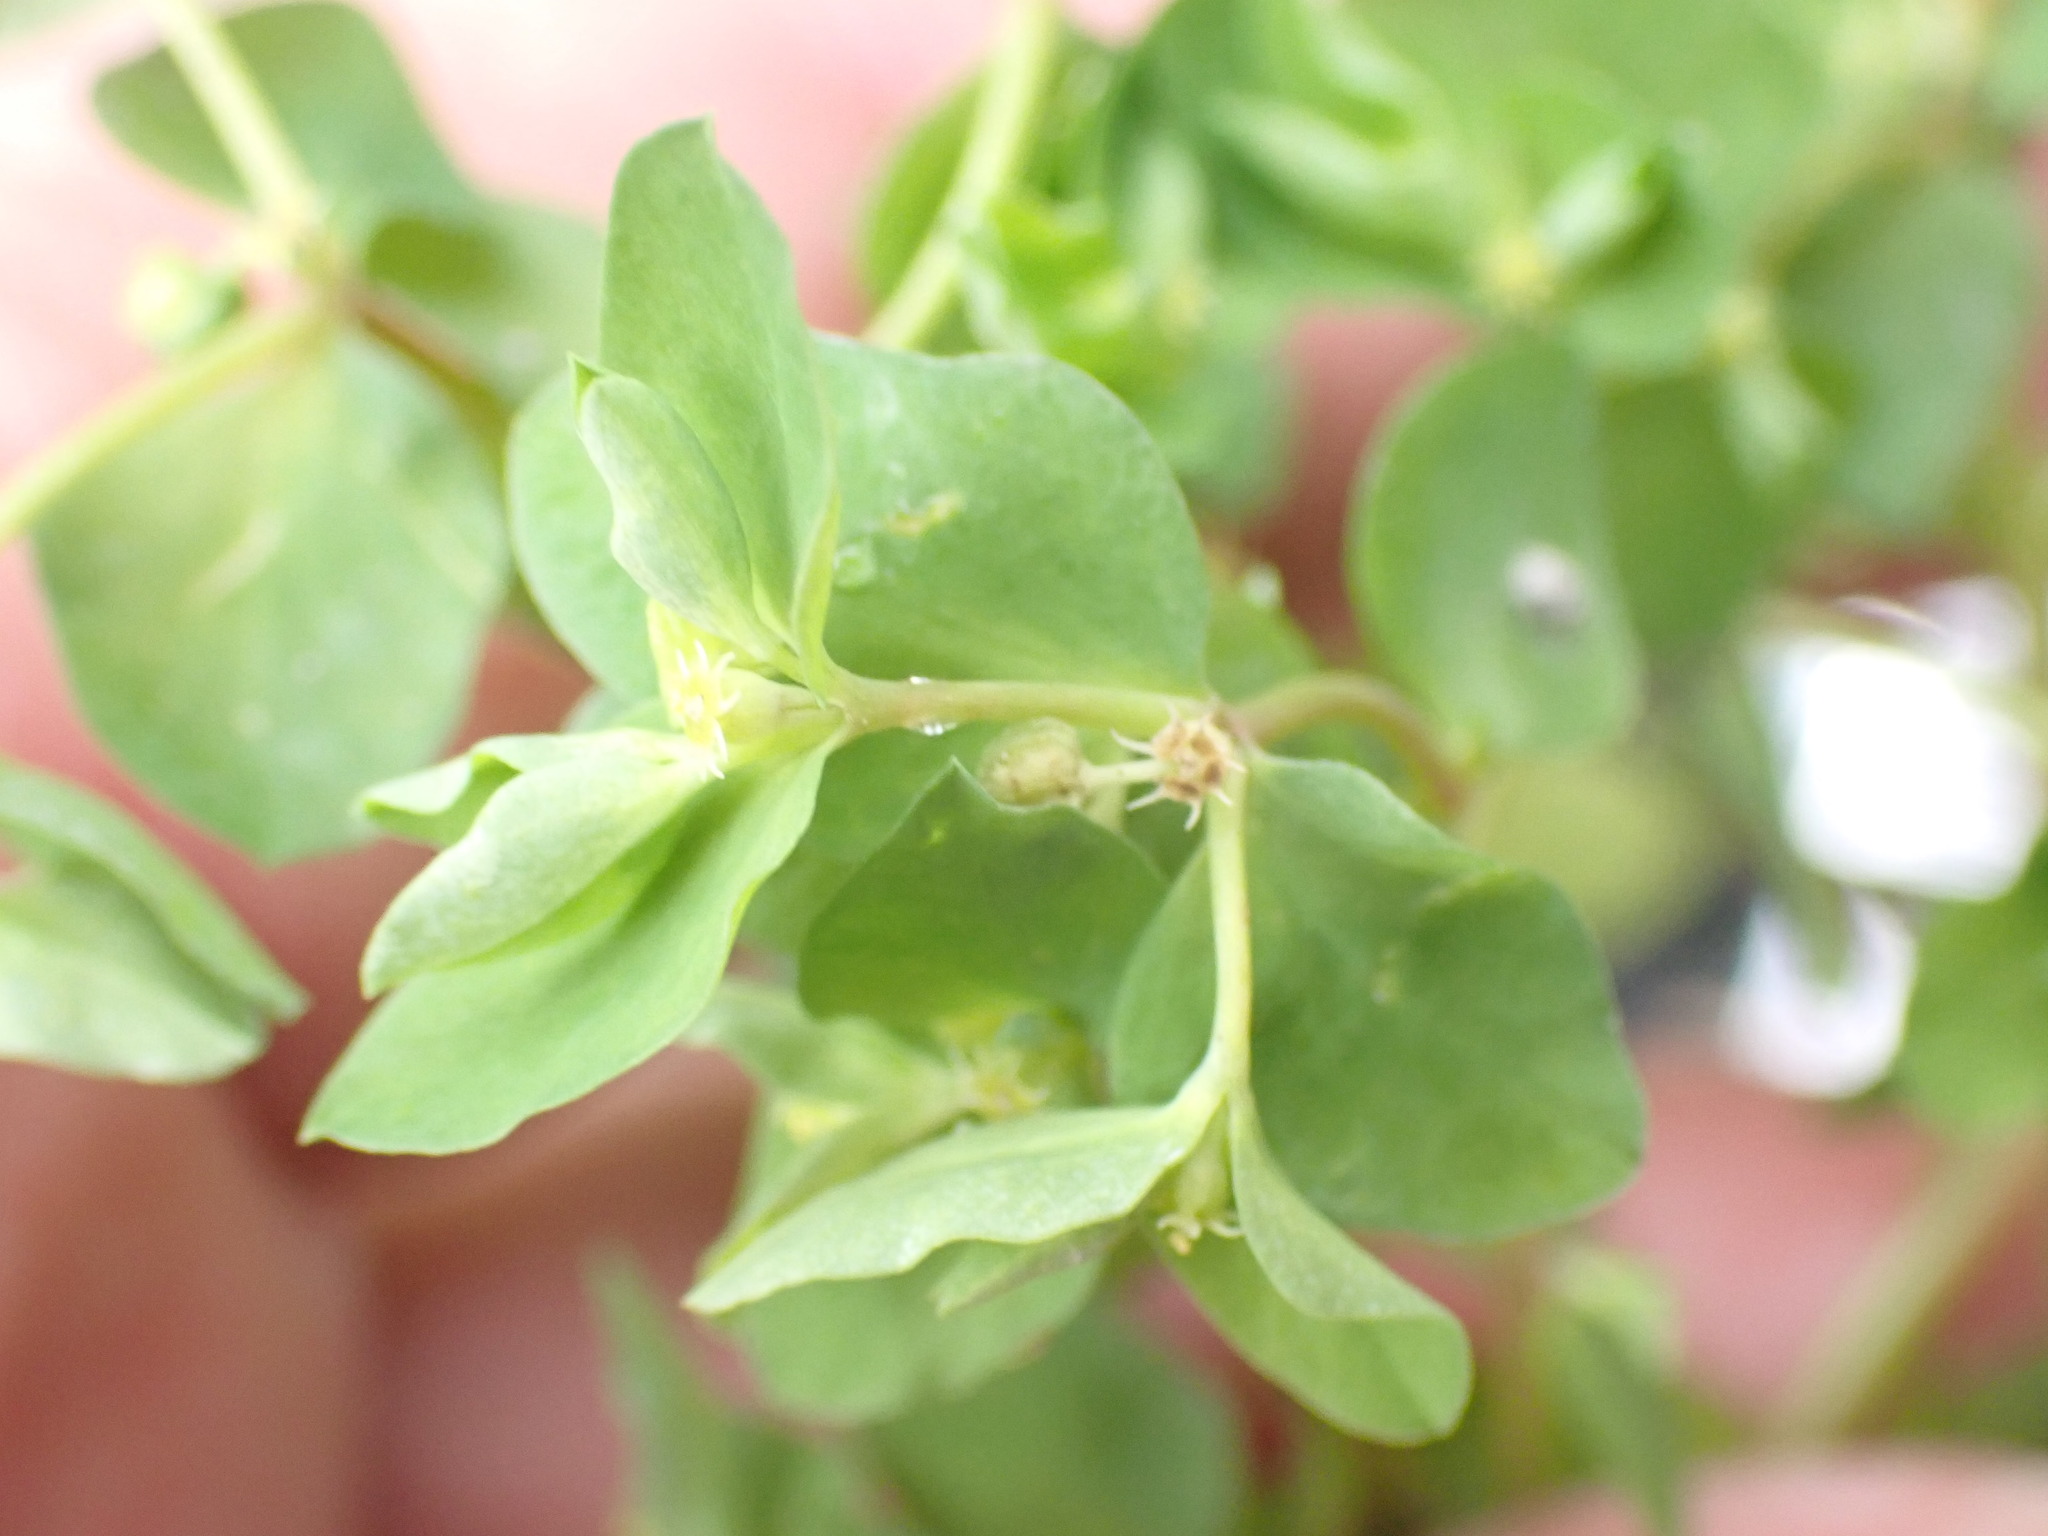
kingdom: Plantae
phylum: Tracheophyta
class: Magnoliopsida
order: Malpighiales
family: Euphorbiaceae
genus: Euphorbia
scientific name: Euphorbia peplus
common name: Petty spurge
